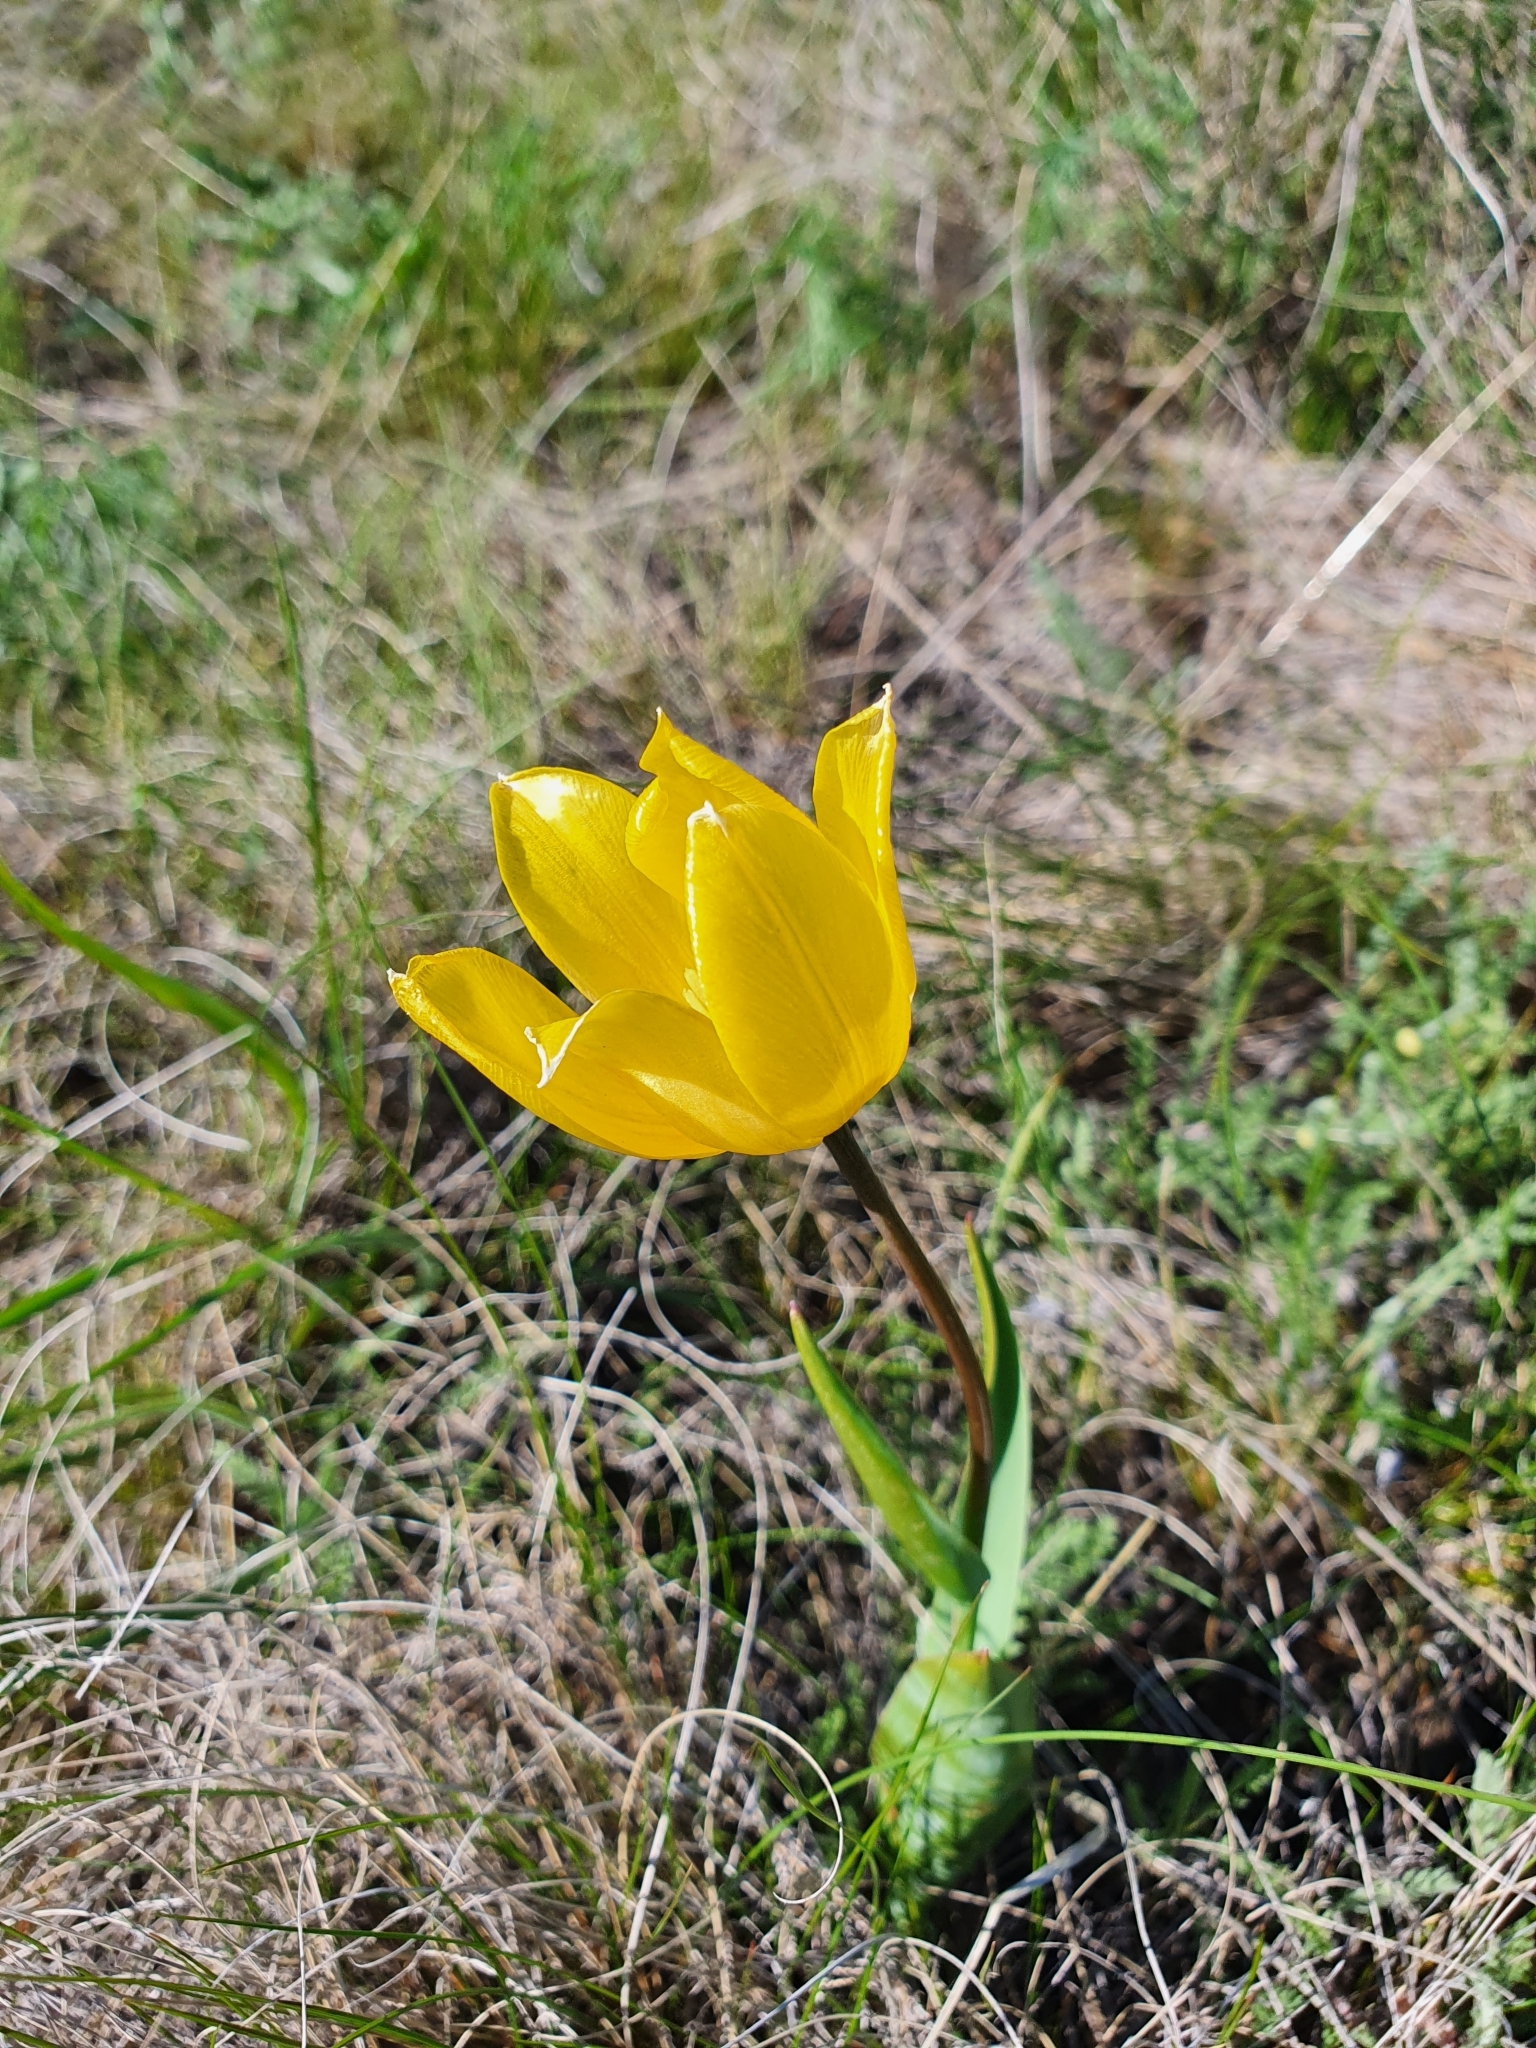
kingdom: Plantae
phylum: Tracheophyta
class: Liliopsida
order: Liliales
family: Liliaceae
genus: Tulipa
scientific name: Tulipa suaveolens
